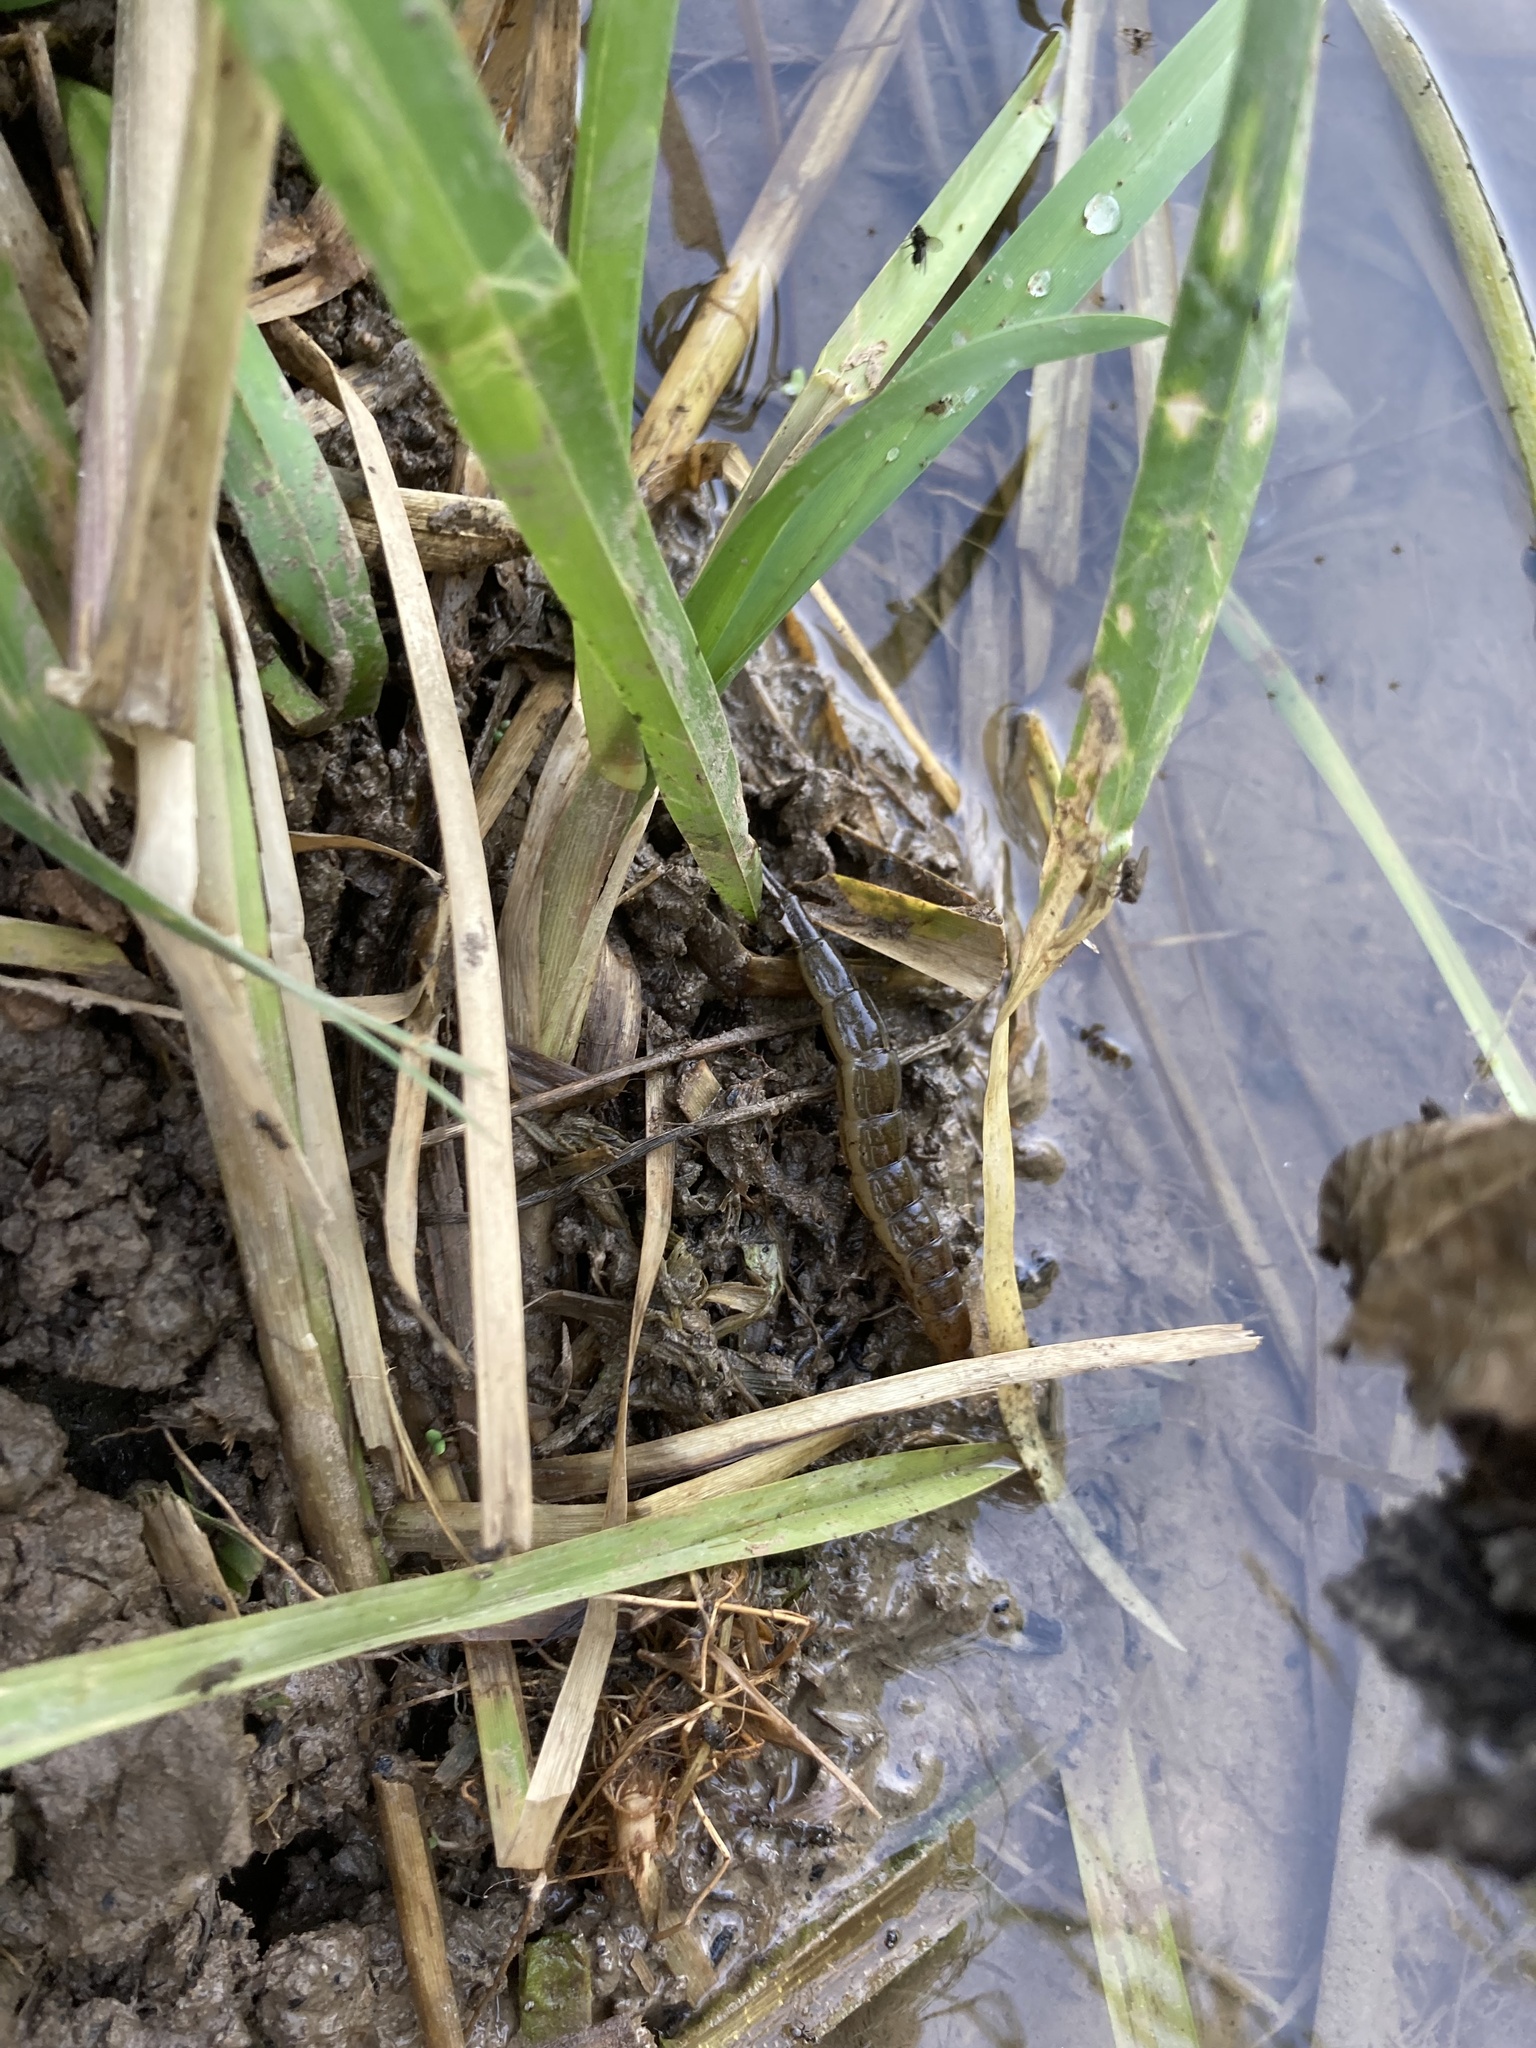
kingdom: Animalia
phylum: Arthropoda
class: Insecta
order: Coleoptera
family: Dytiscidae
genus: Cybister
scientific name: Cybister lateralimarginalis
